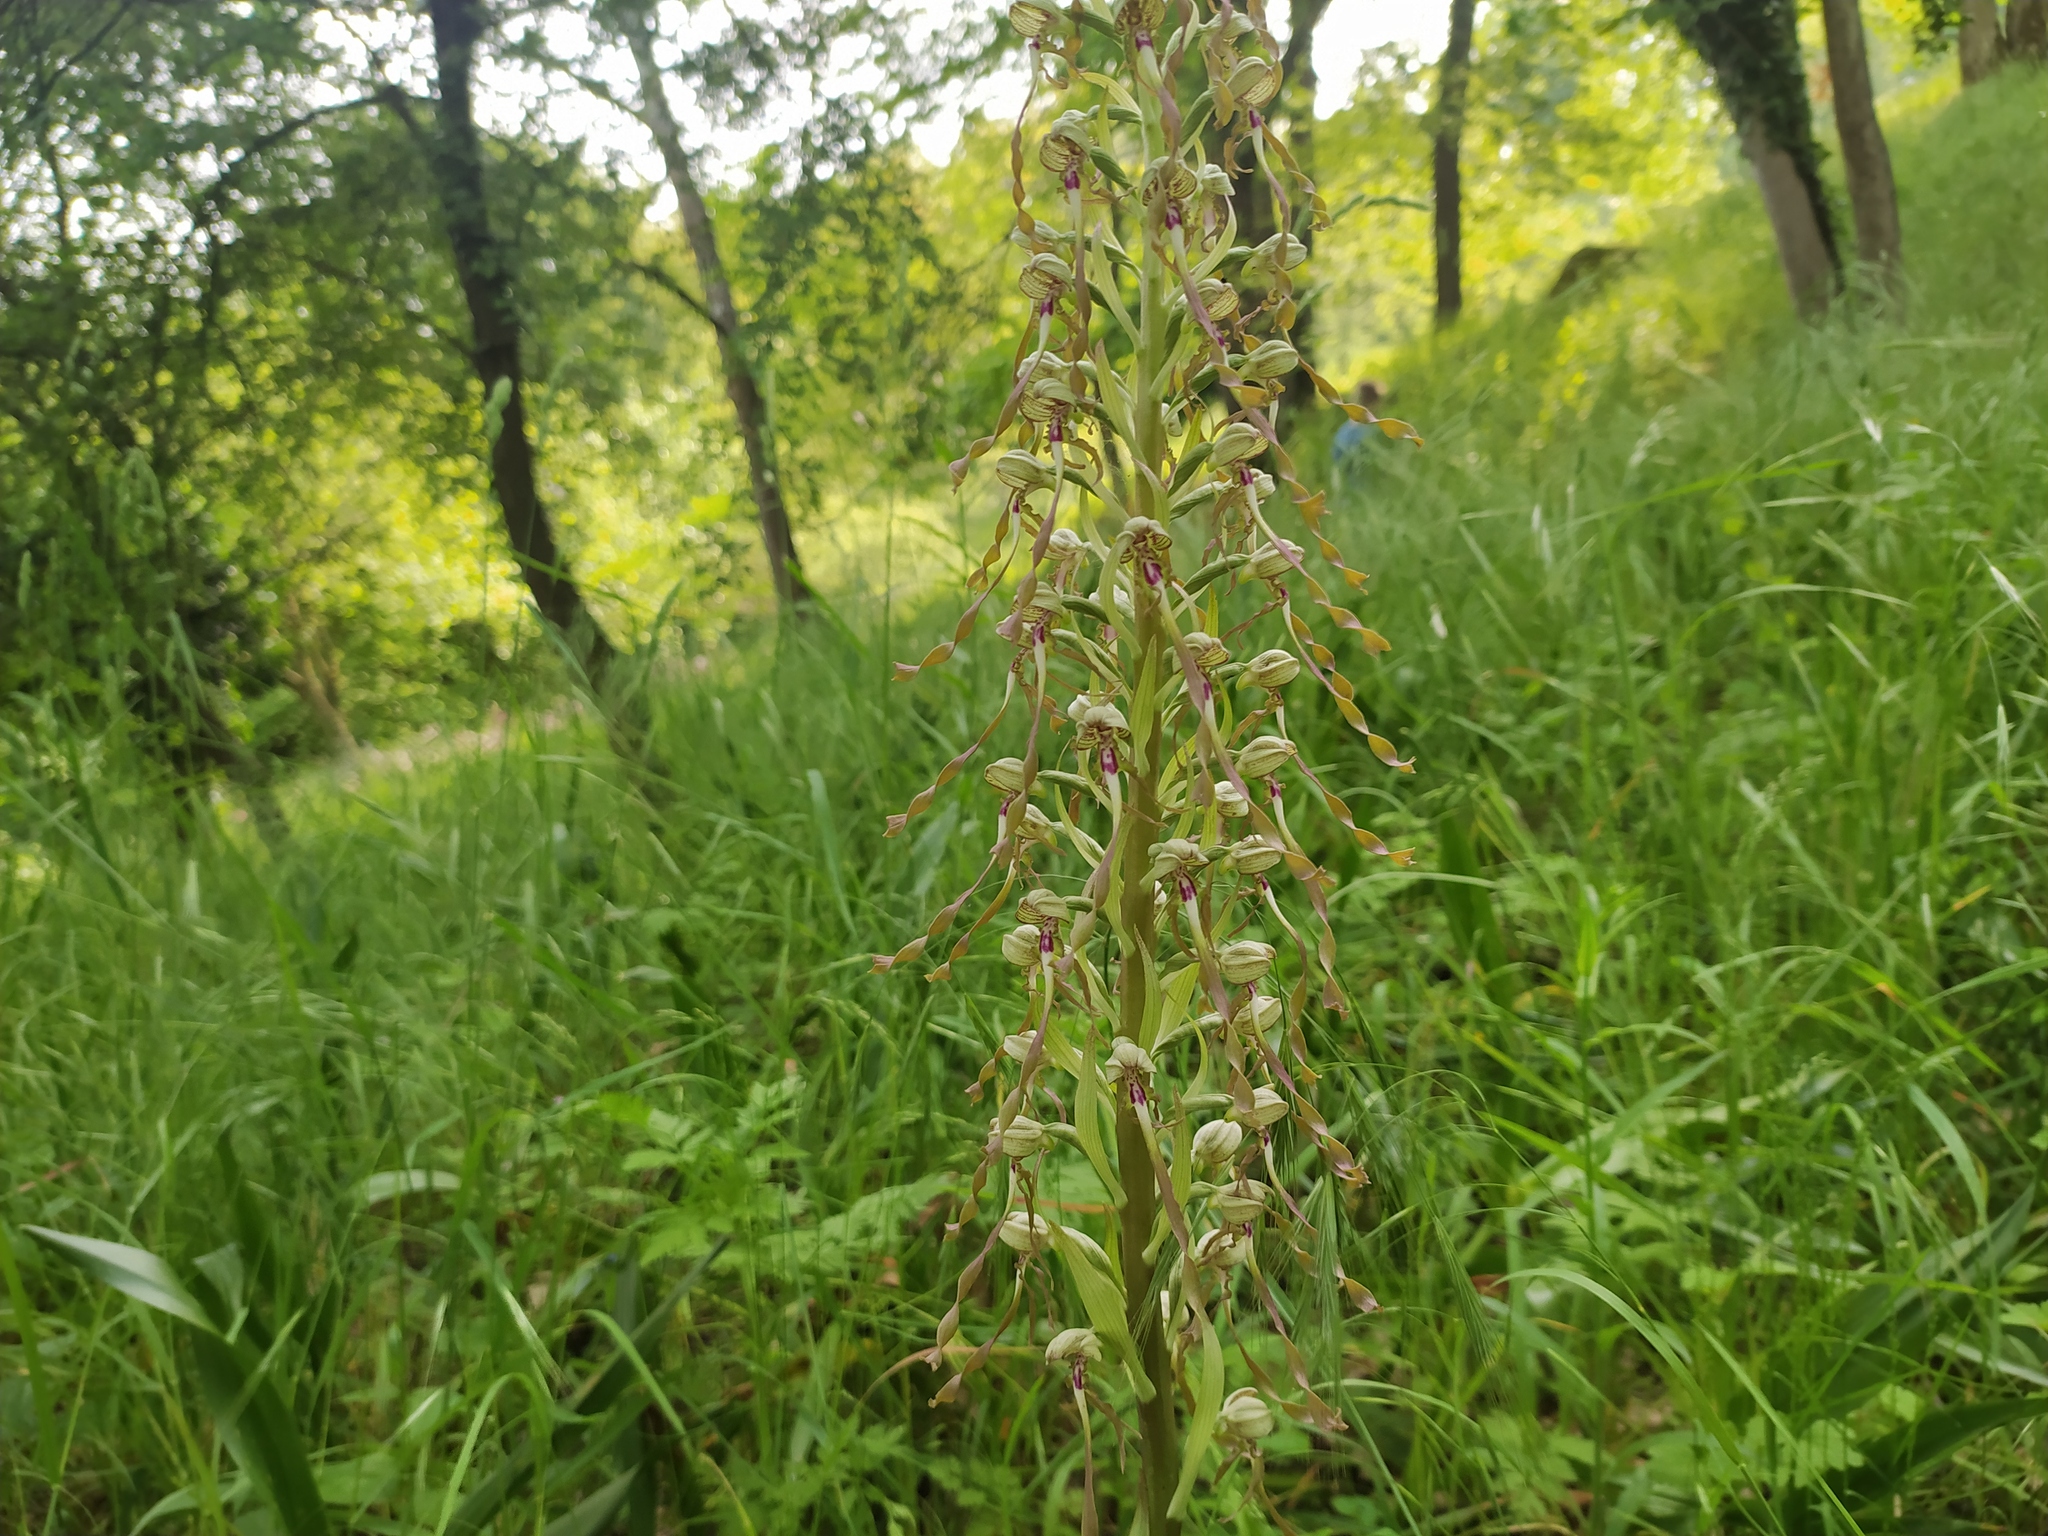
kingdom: Plantae
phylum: Tracheophyta
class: Liliopsida
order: Asparagales
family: Orchidaceae
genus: Himantoglossum
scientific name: Himantoglossum hircinum
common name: Lizard orchid
